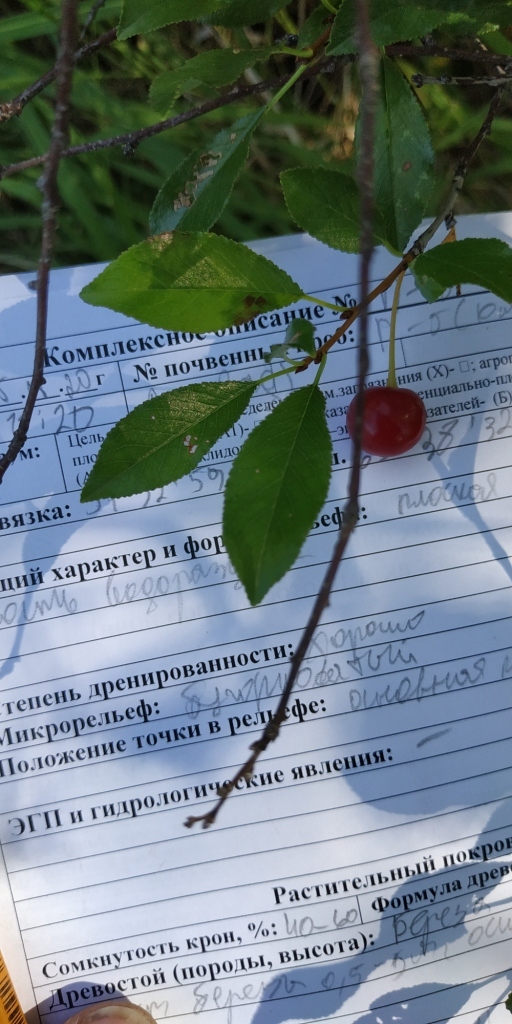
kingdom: Plantae
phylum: Tracheophyta
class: Magnoliopsida
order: Rosales
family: Rosaceae
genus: Prunus
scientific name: Prunus fruticosa
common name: European dwarf cherry
